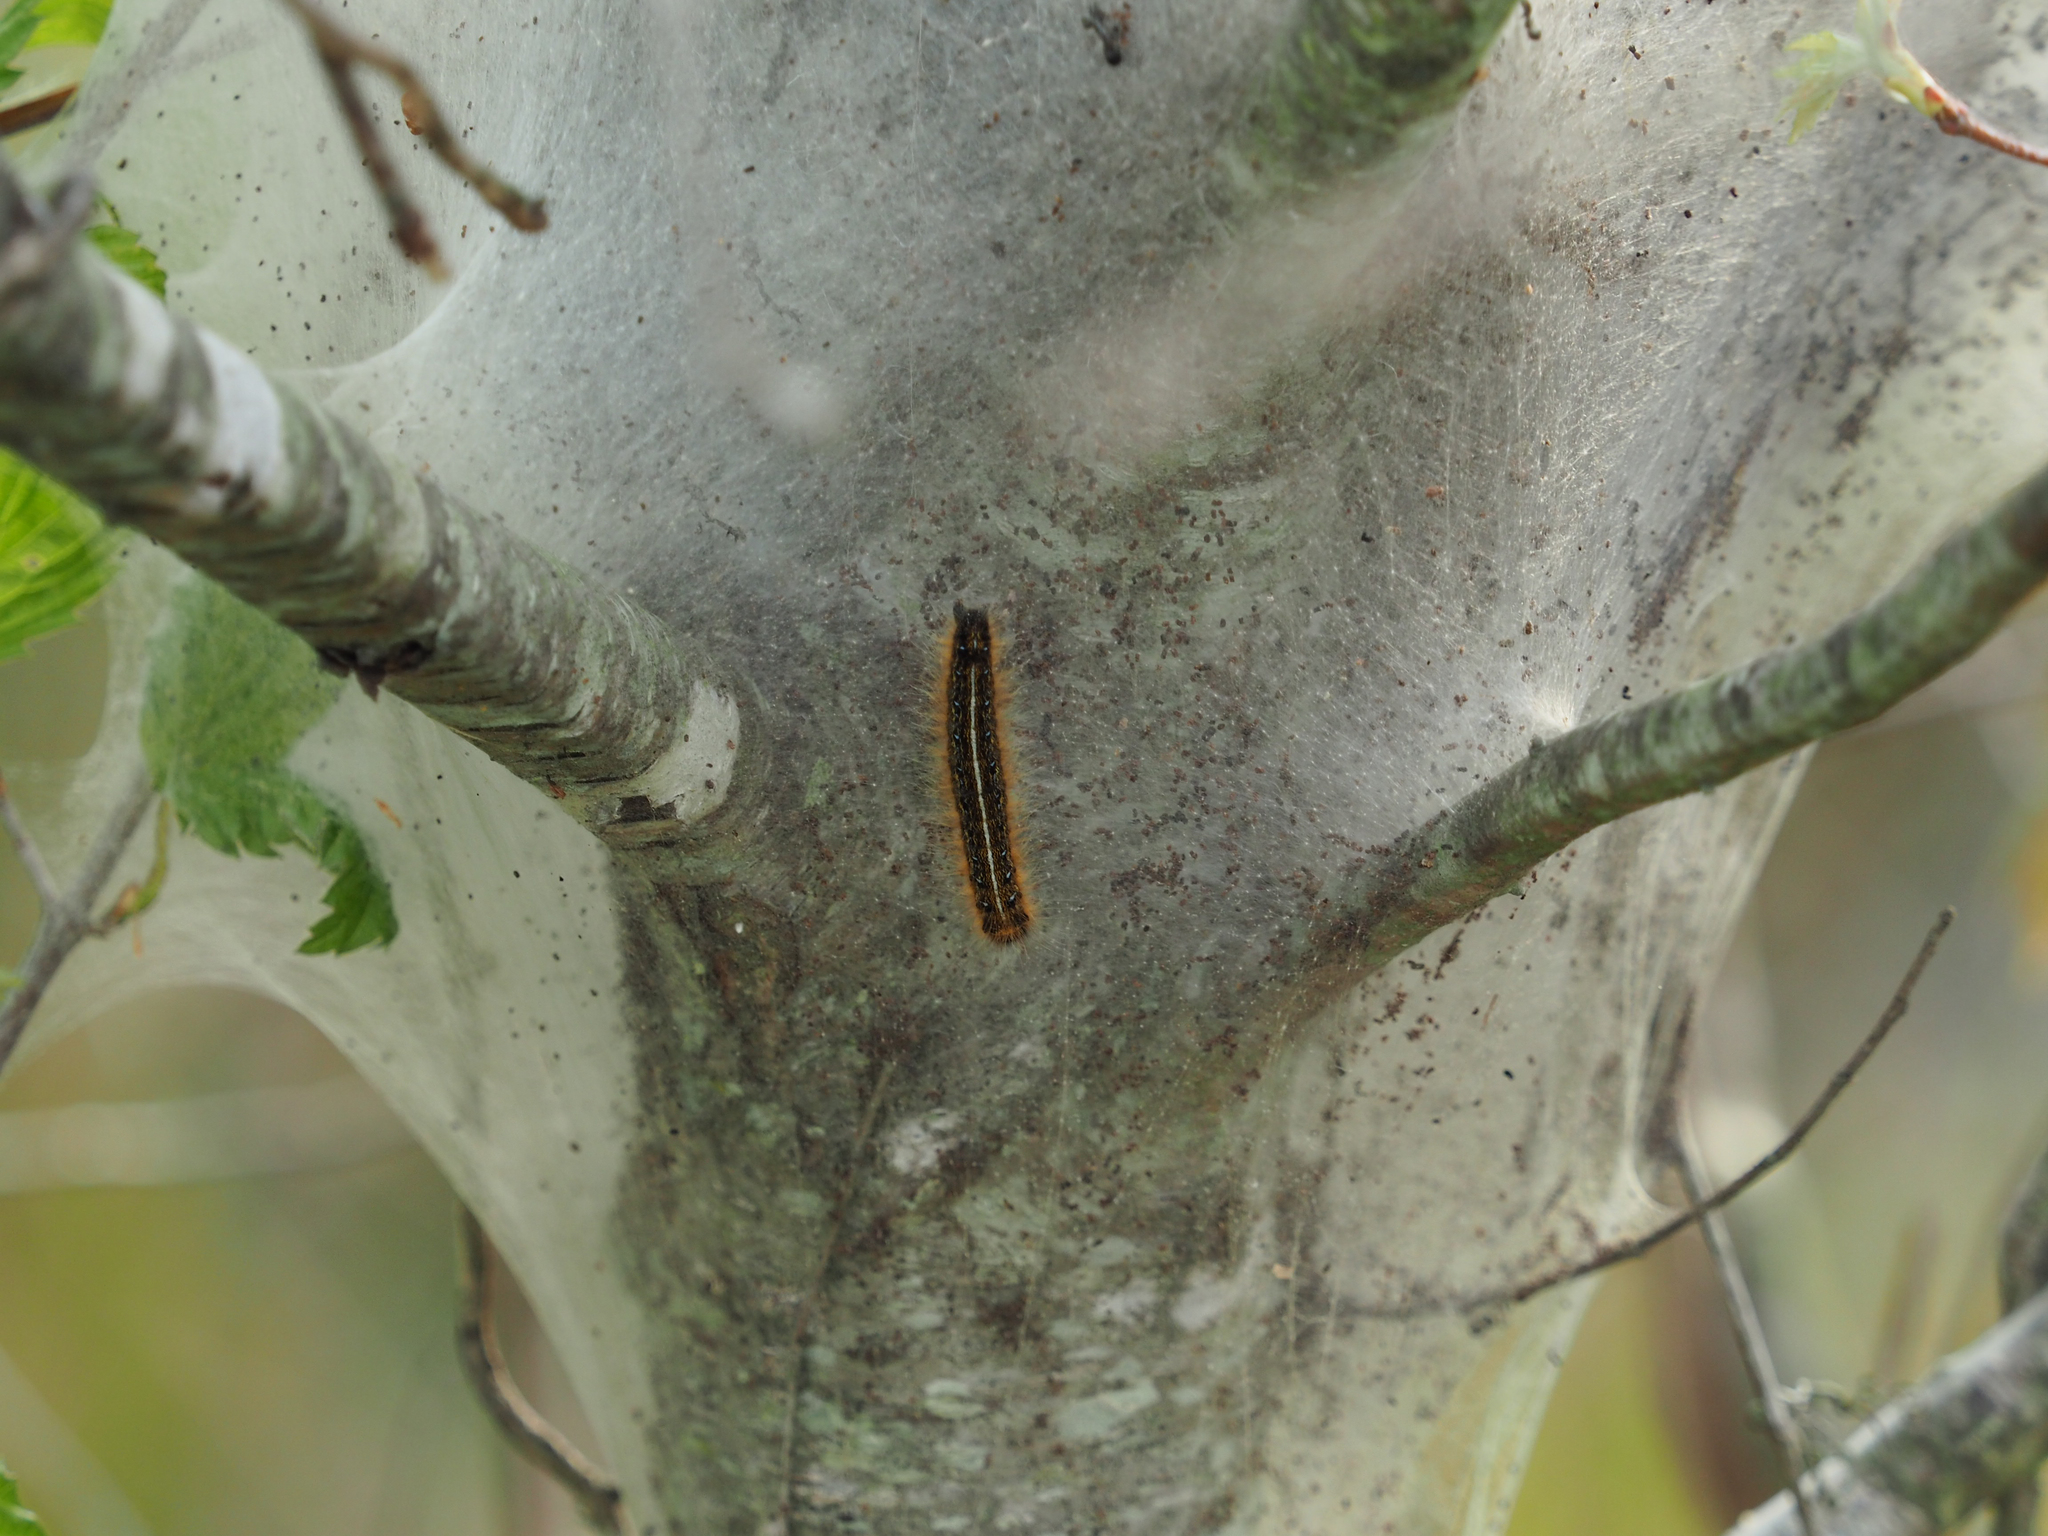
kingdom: Animalia
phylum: Arthropoda
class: Insecta
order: Lepidoptera
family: Lasiocampidae
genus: Malacosoma
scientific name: Malacosoma americana
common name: Eastern tent caterpillar moth
